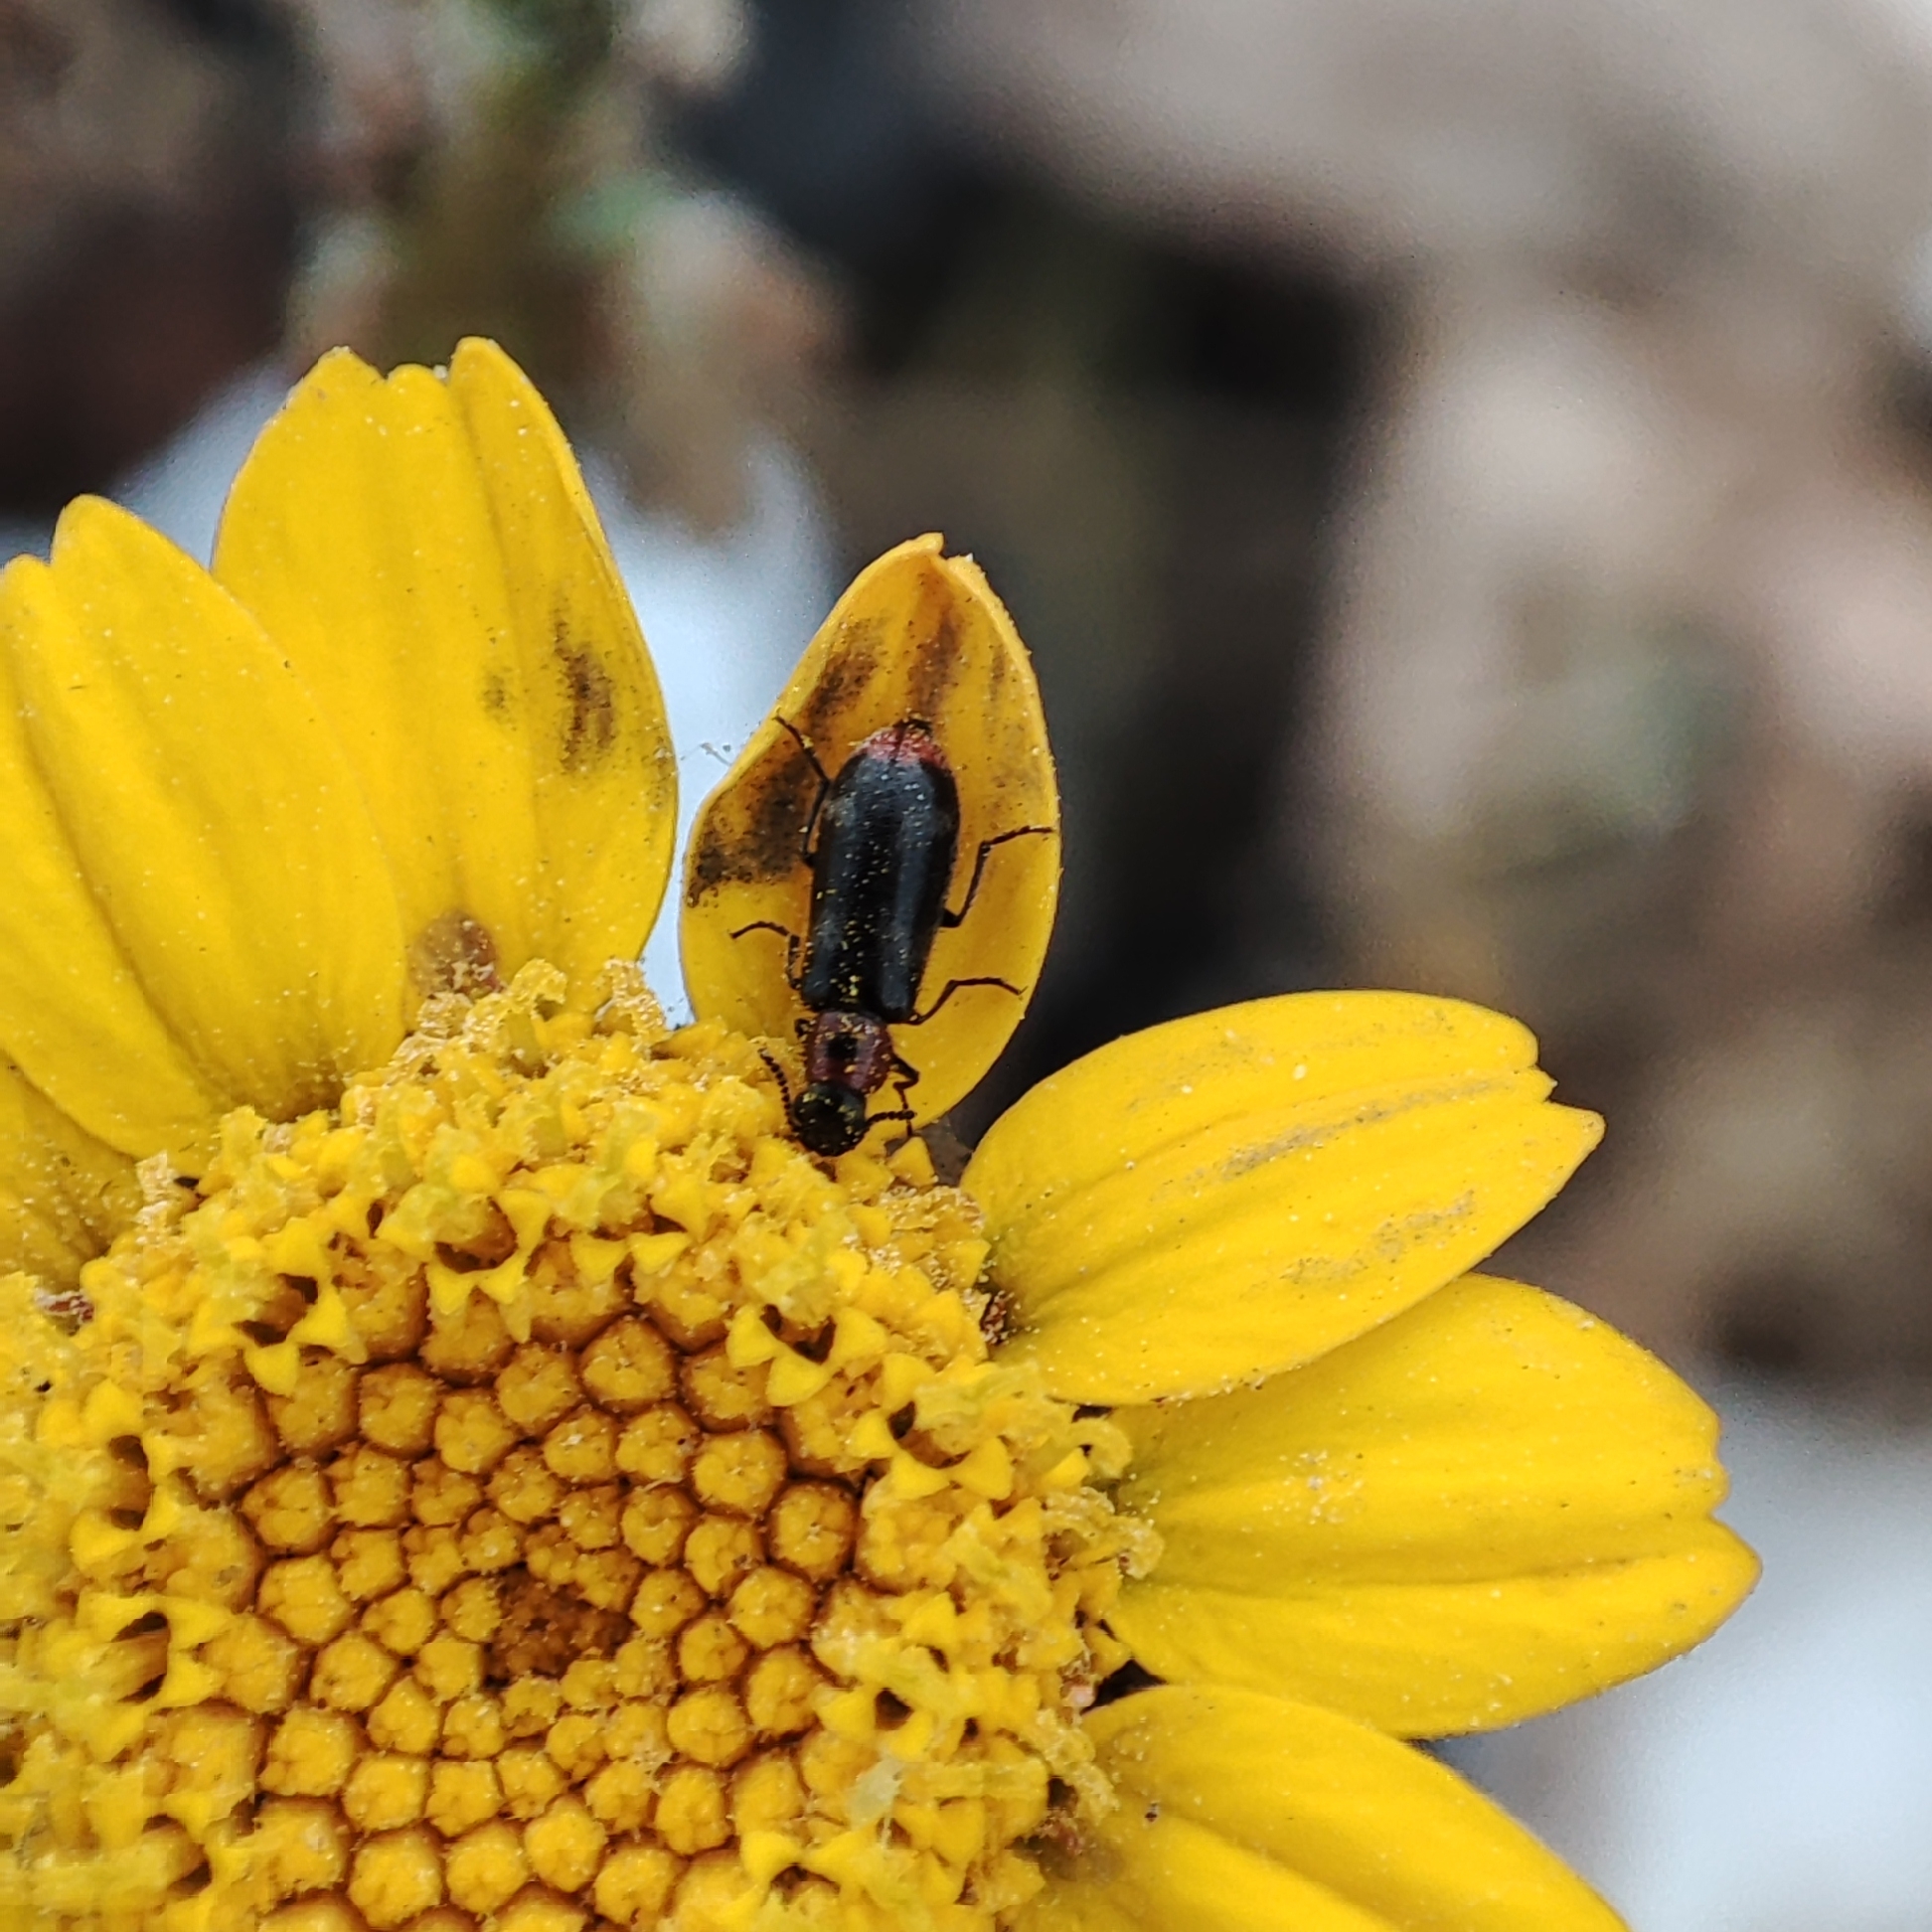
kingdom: Animalia
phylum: Arthropoda
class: Insecta
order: Coleoptera
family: Melyridae
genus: Dasytes
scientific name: Dasytes terminalis
